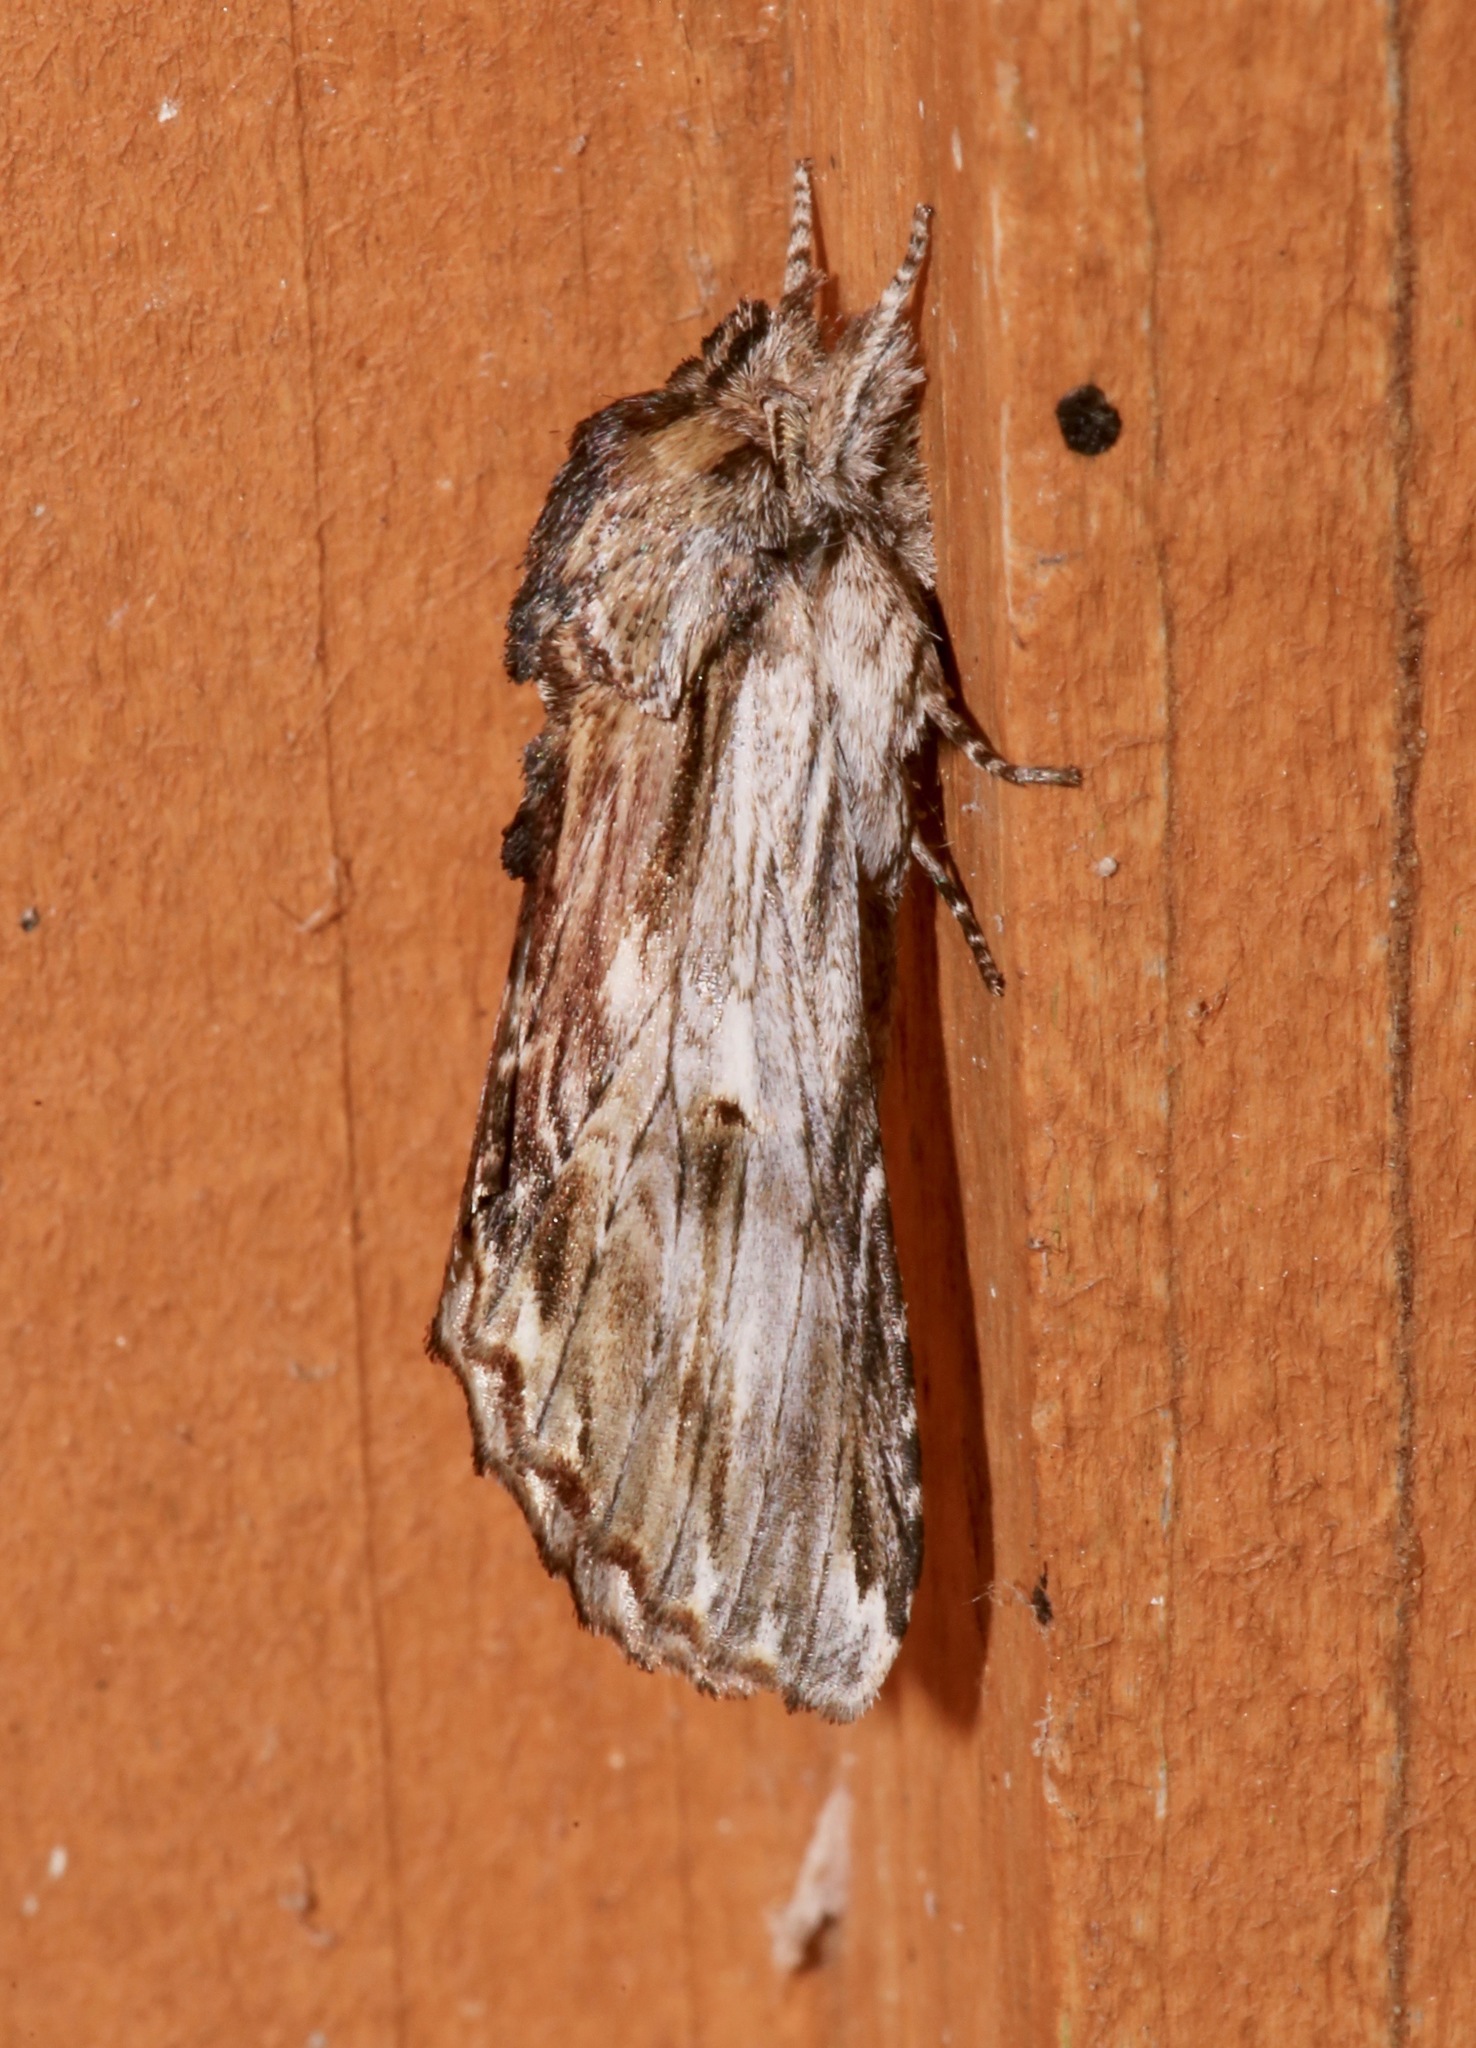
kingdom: Animalia
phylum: Arthropoda
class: Insecta
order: Lepidoptera
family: Notodontidae
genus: Oligocentria
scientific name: Oligocentria Ianassa lignicolor
